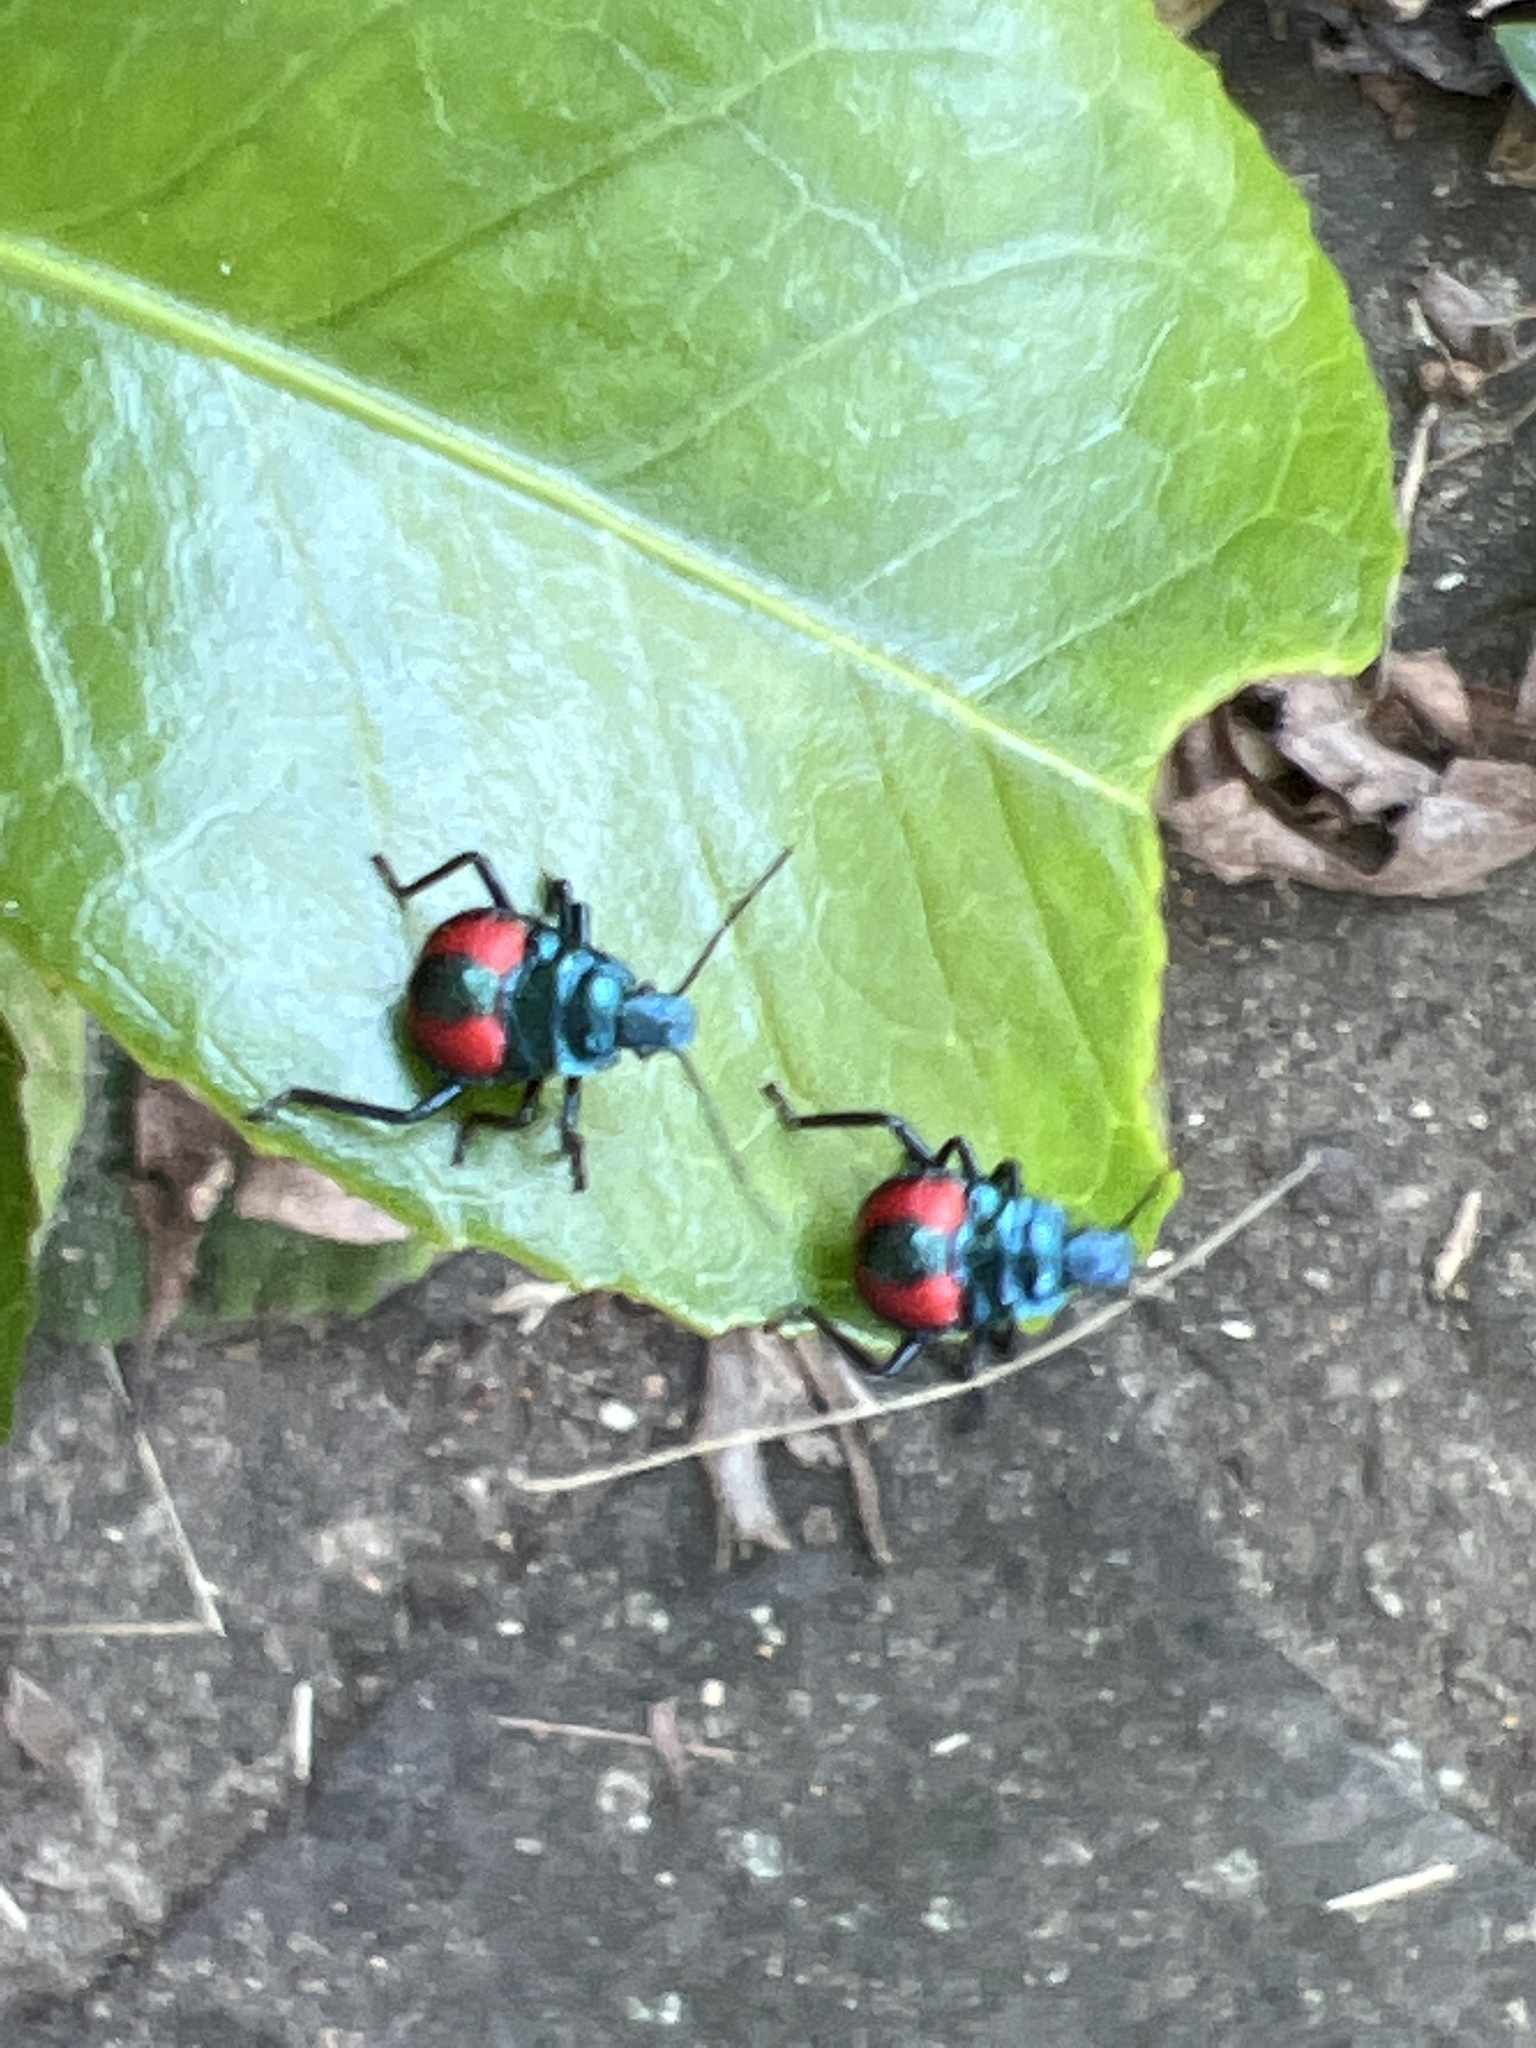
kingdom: Animalia
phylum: Arthropoda
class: Insecta
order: Hemiptera
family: Pentatomidae
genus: Euthyrhynchus
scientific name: Euthyrhynchus floridanus
